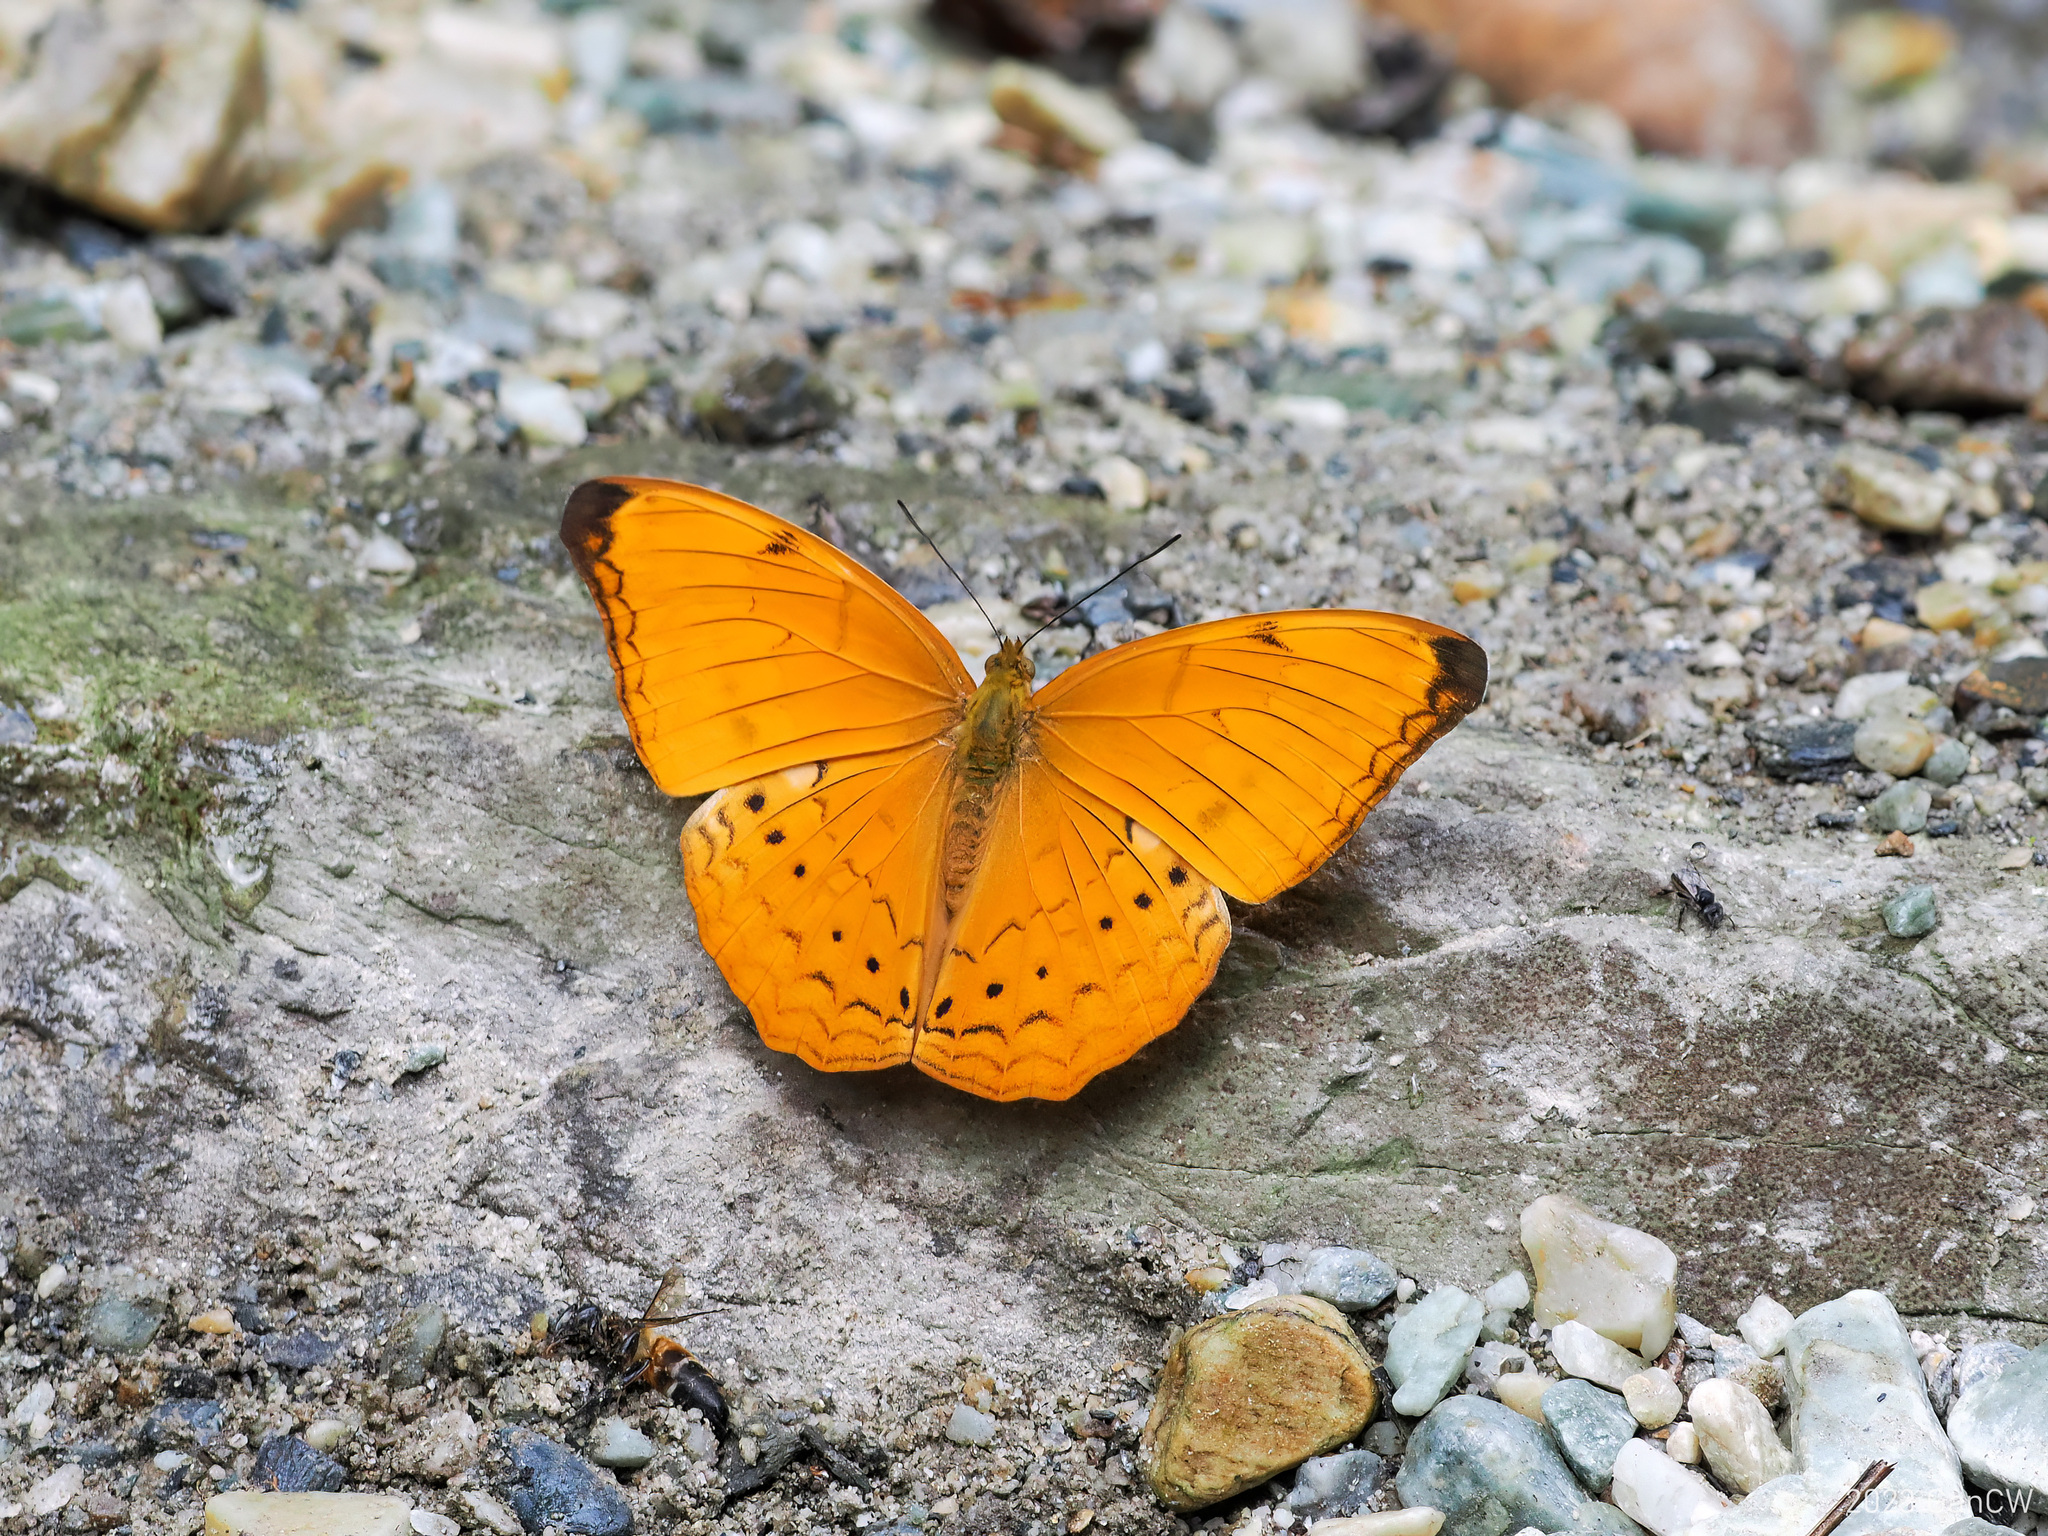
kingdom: Animalia
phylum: Arthropoda
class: Insecta
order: Lepidoptera
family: Nymphalidae
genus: Cirrochroa
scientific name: Cirrochroa aoris
